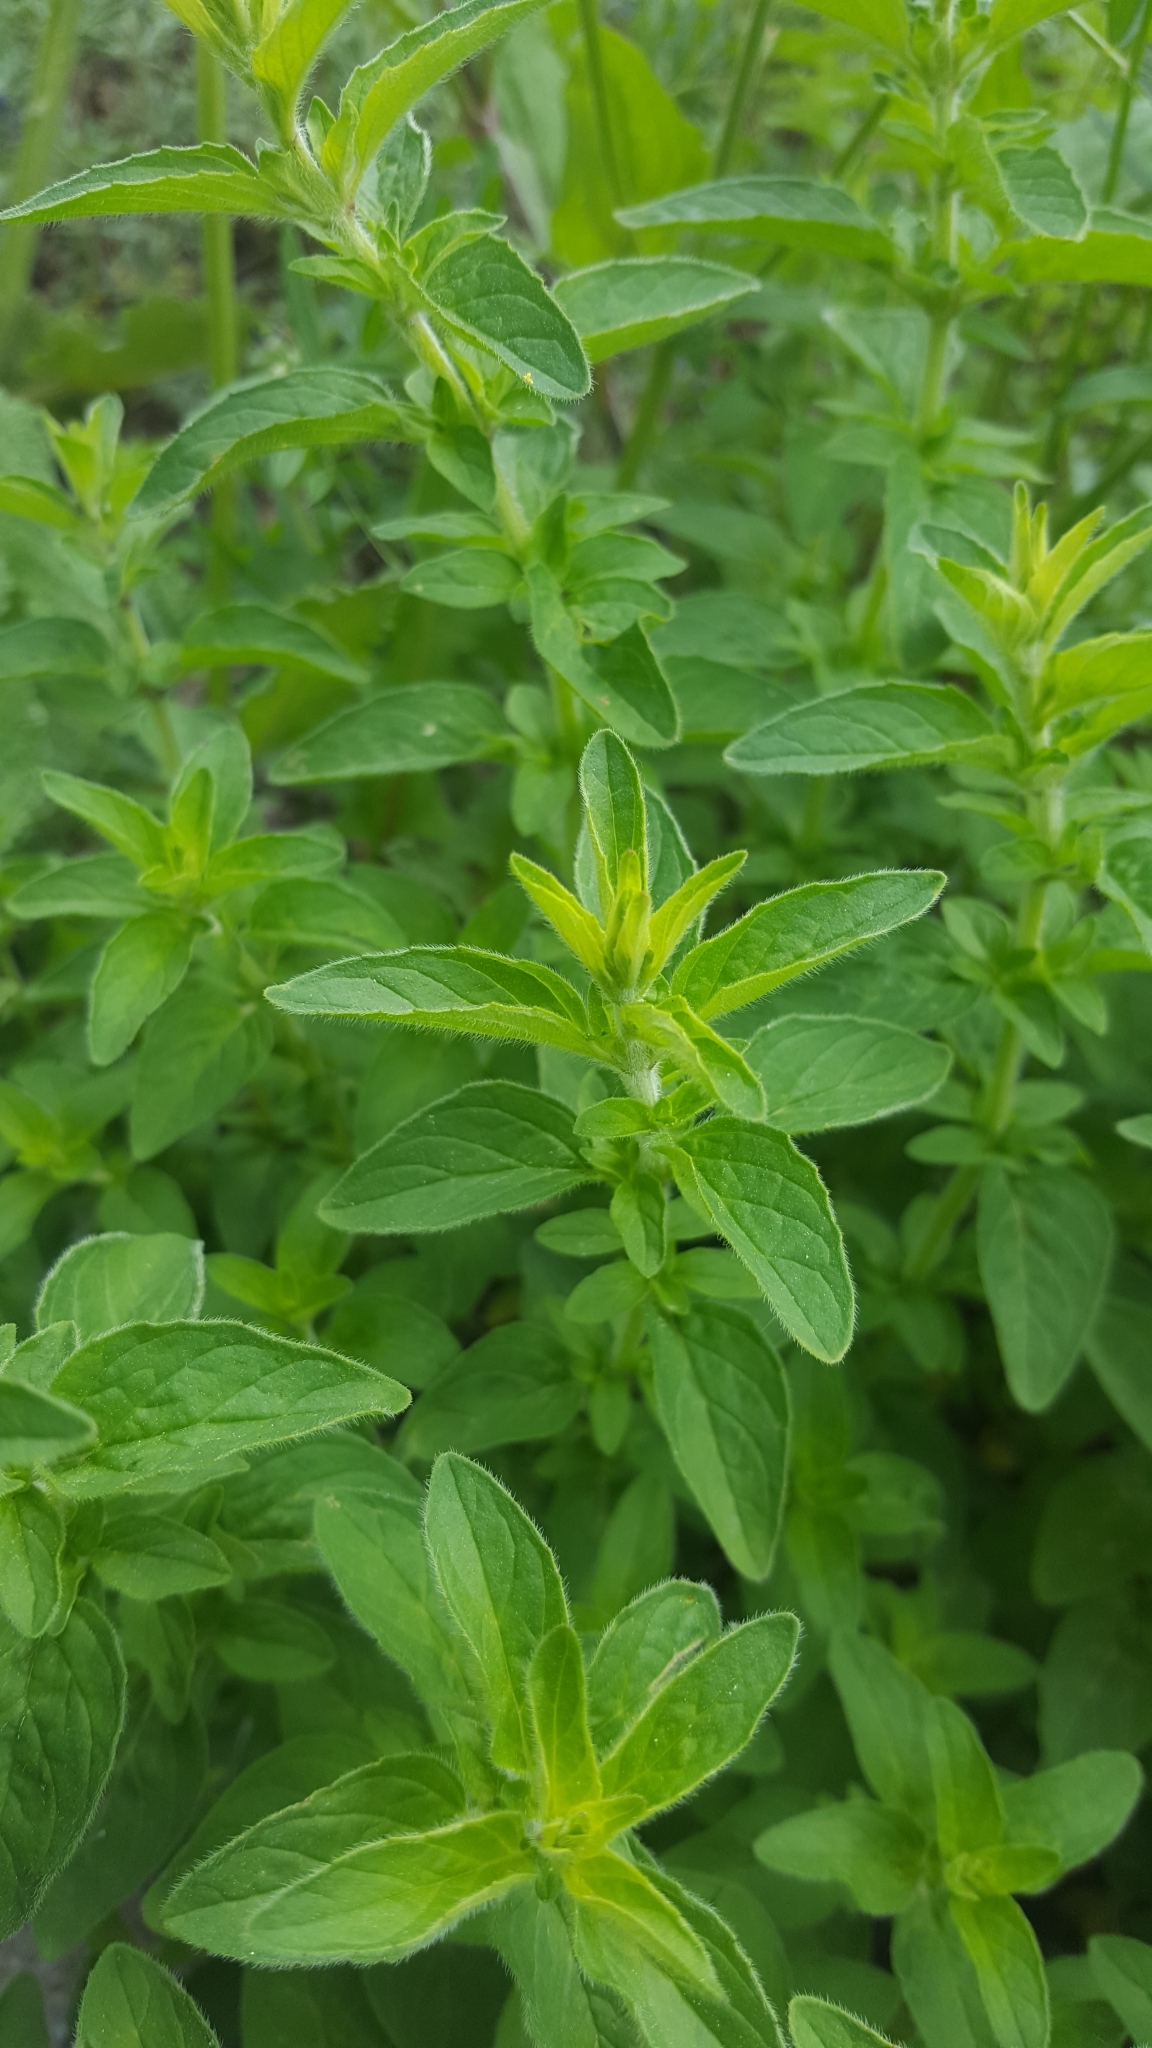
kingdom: Plantae
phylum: Tracheophyta
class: Magnoliopsida
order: Lamiales
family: Lamiaceae
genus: Origanum
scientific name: Origanum vulgare
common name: Wild marjoram
